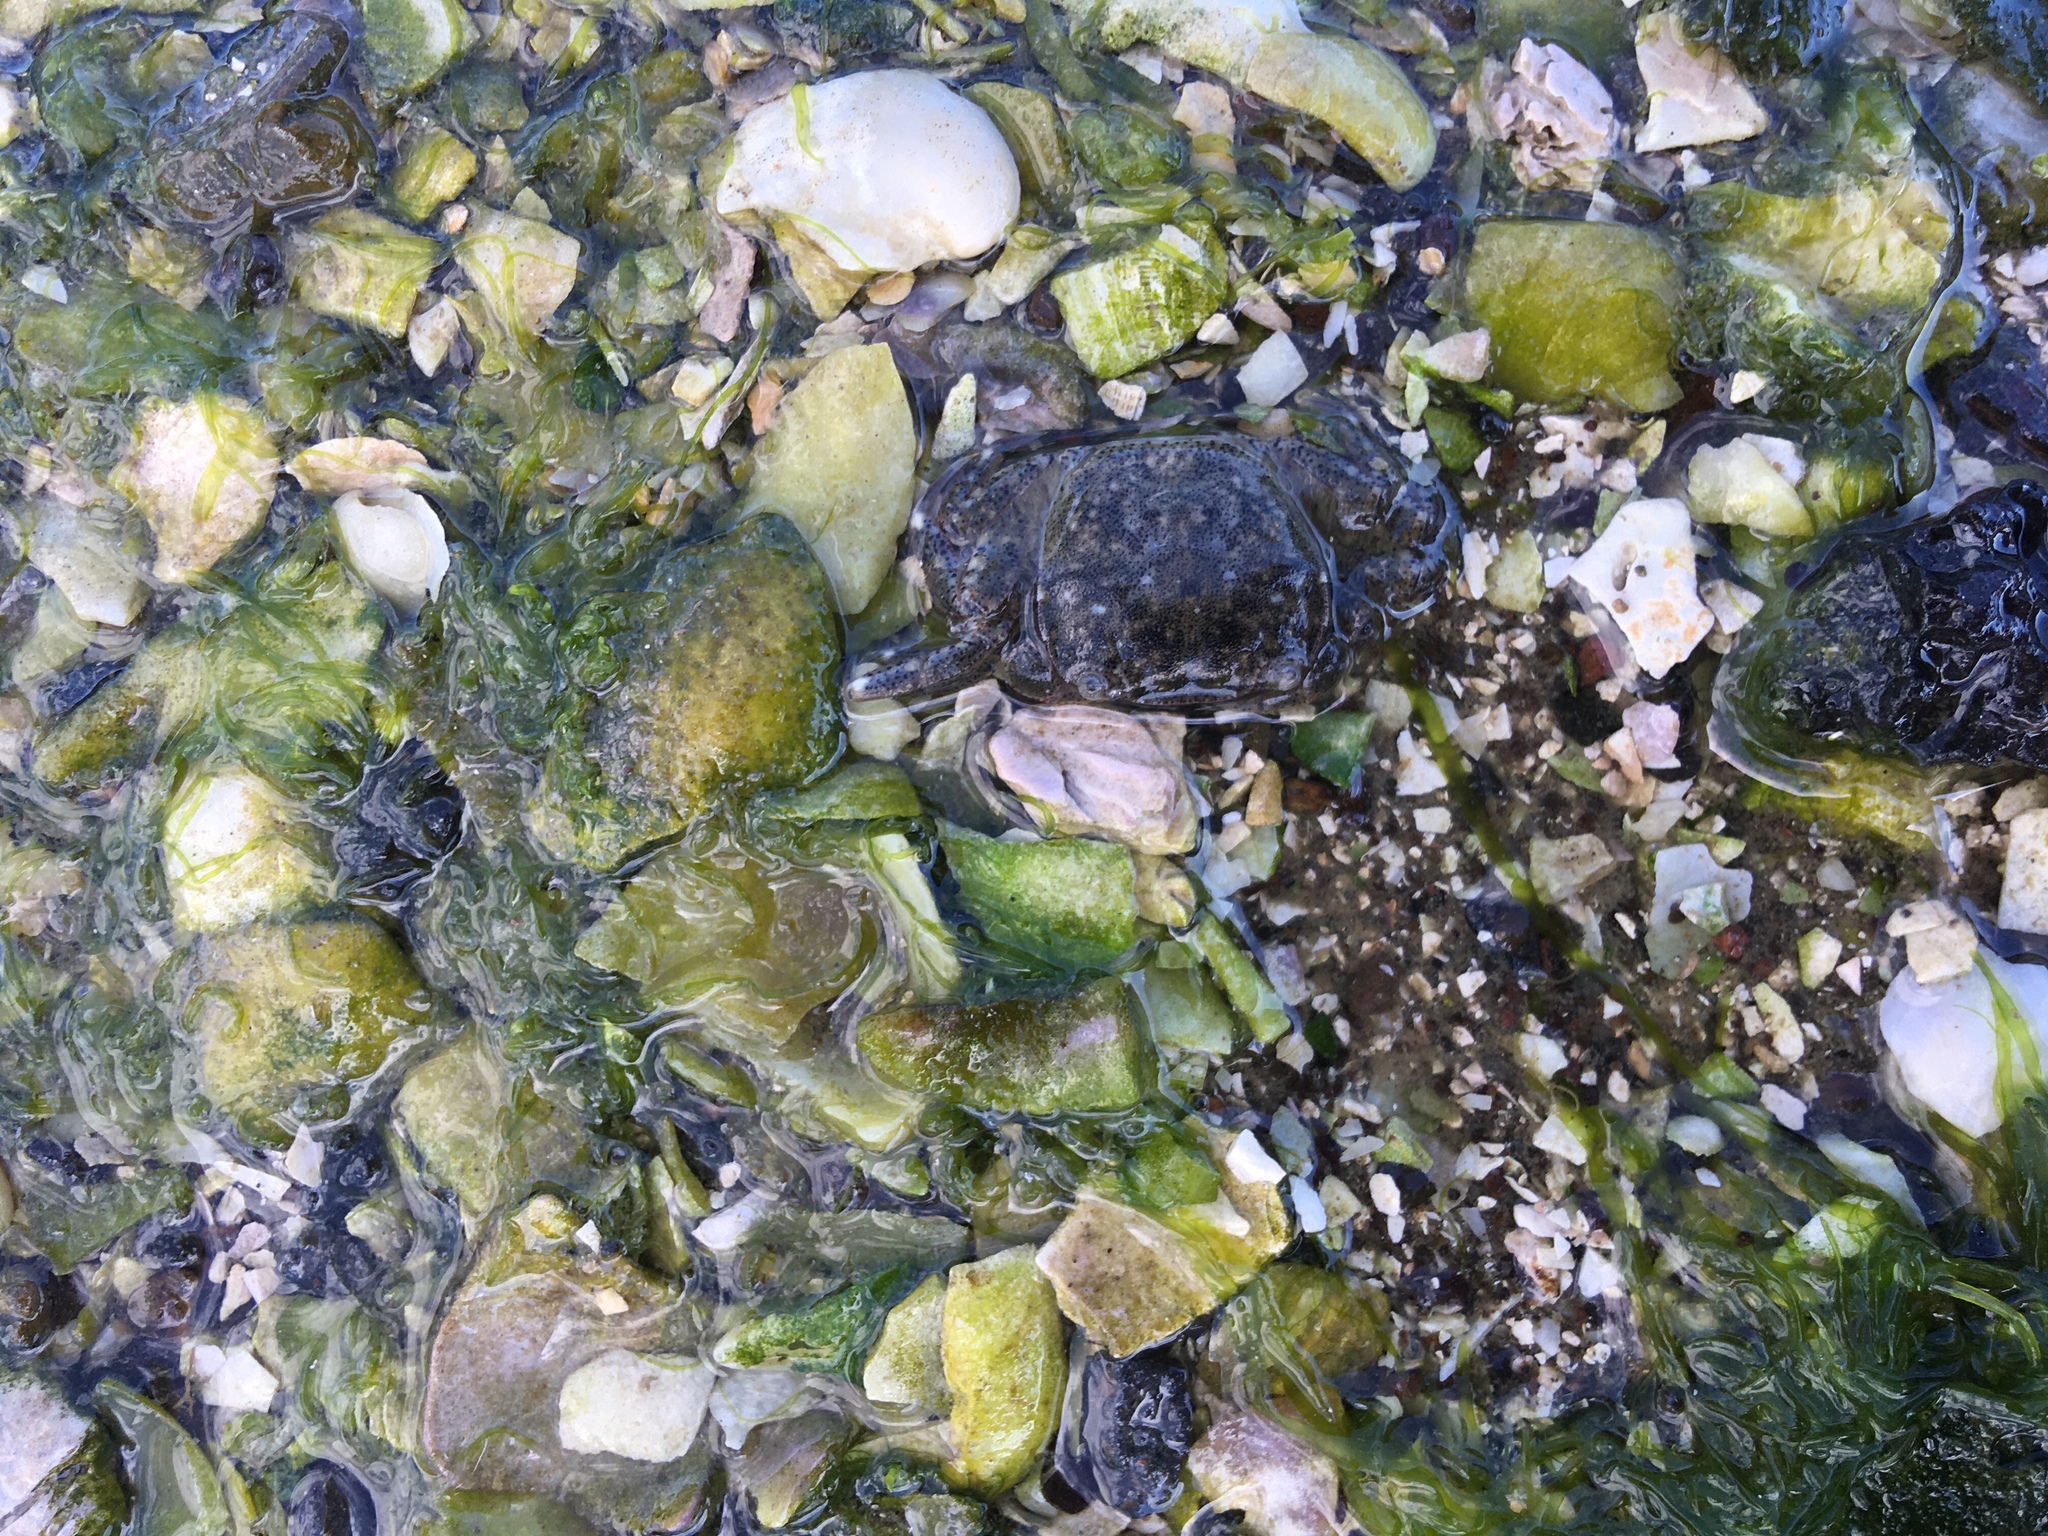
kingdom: Animalia
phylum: Arthropoda
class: Malacostraca
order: Decapoda
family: Varunidae
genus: Hemigrapsus
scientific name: Hemigrapsus crenulatus
